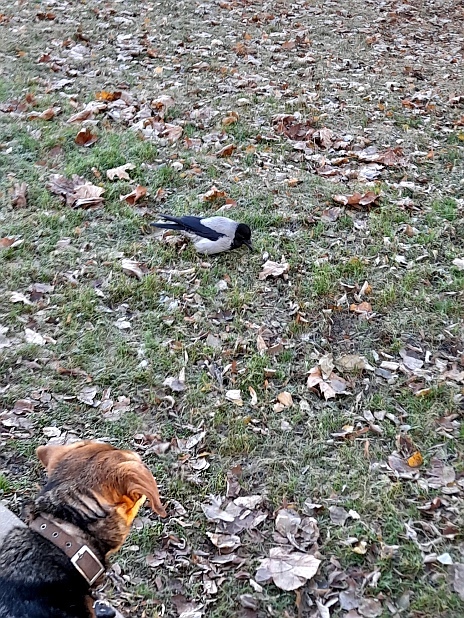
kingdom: Animalia
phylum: Chordata
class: Aves
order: Passeriformes
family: Corvidae
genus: Corvus
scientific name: Corvus cornix
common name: Hooded crow
